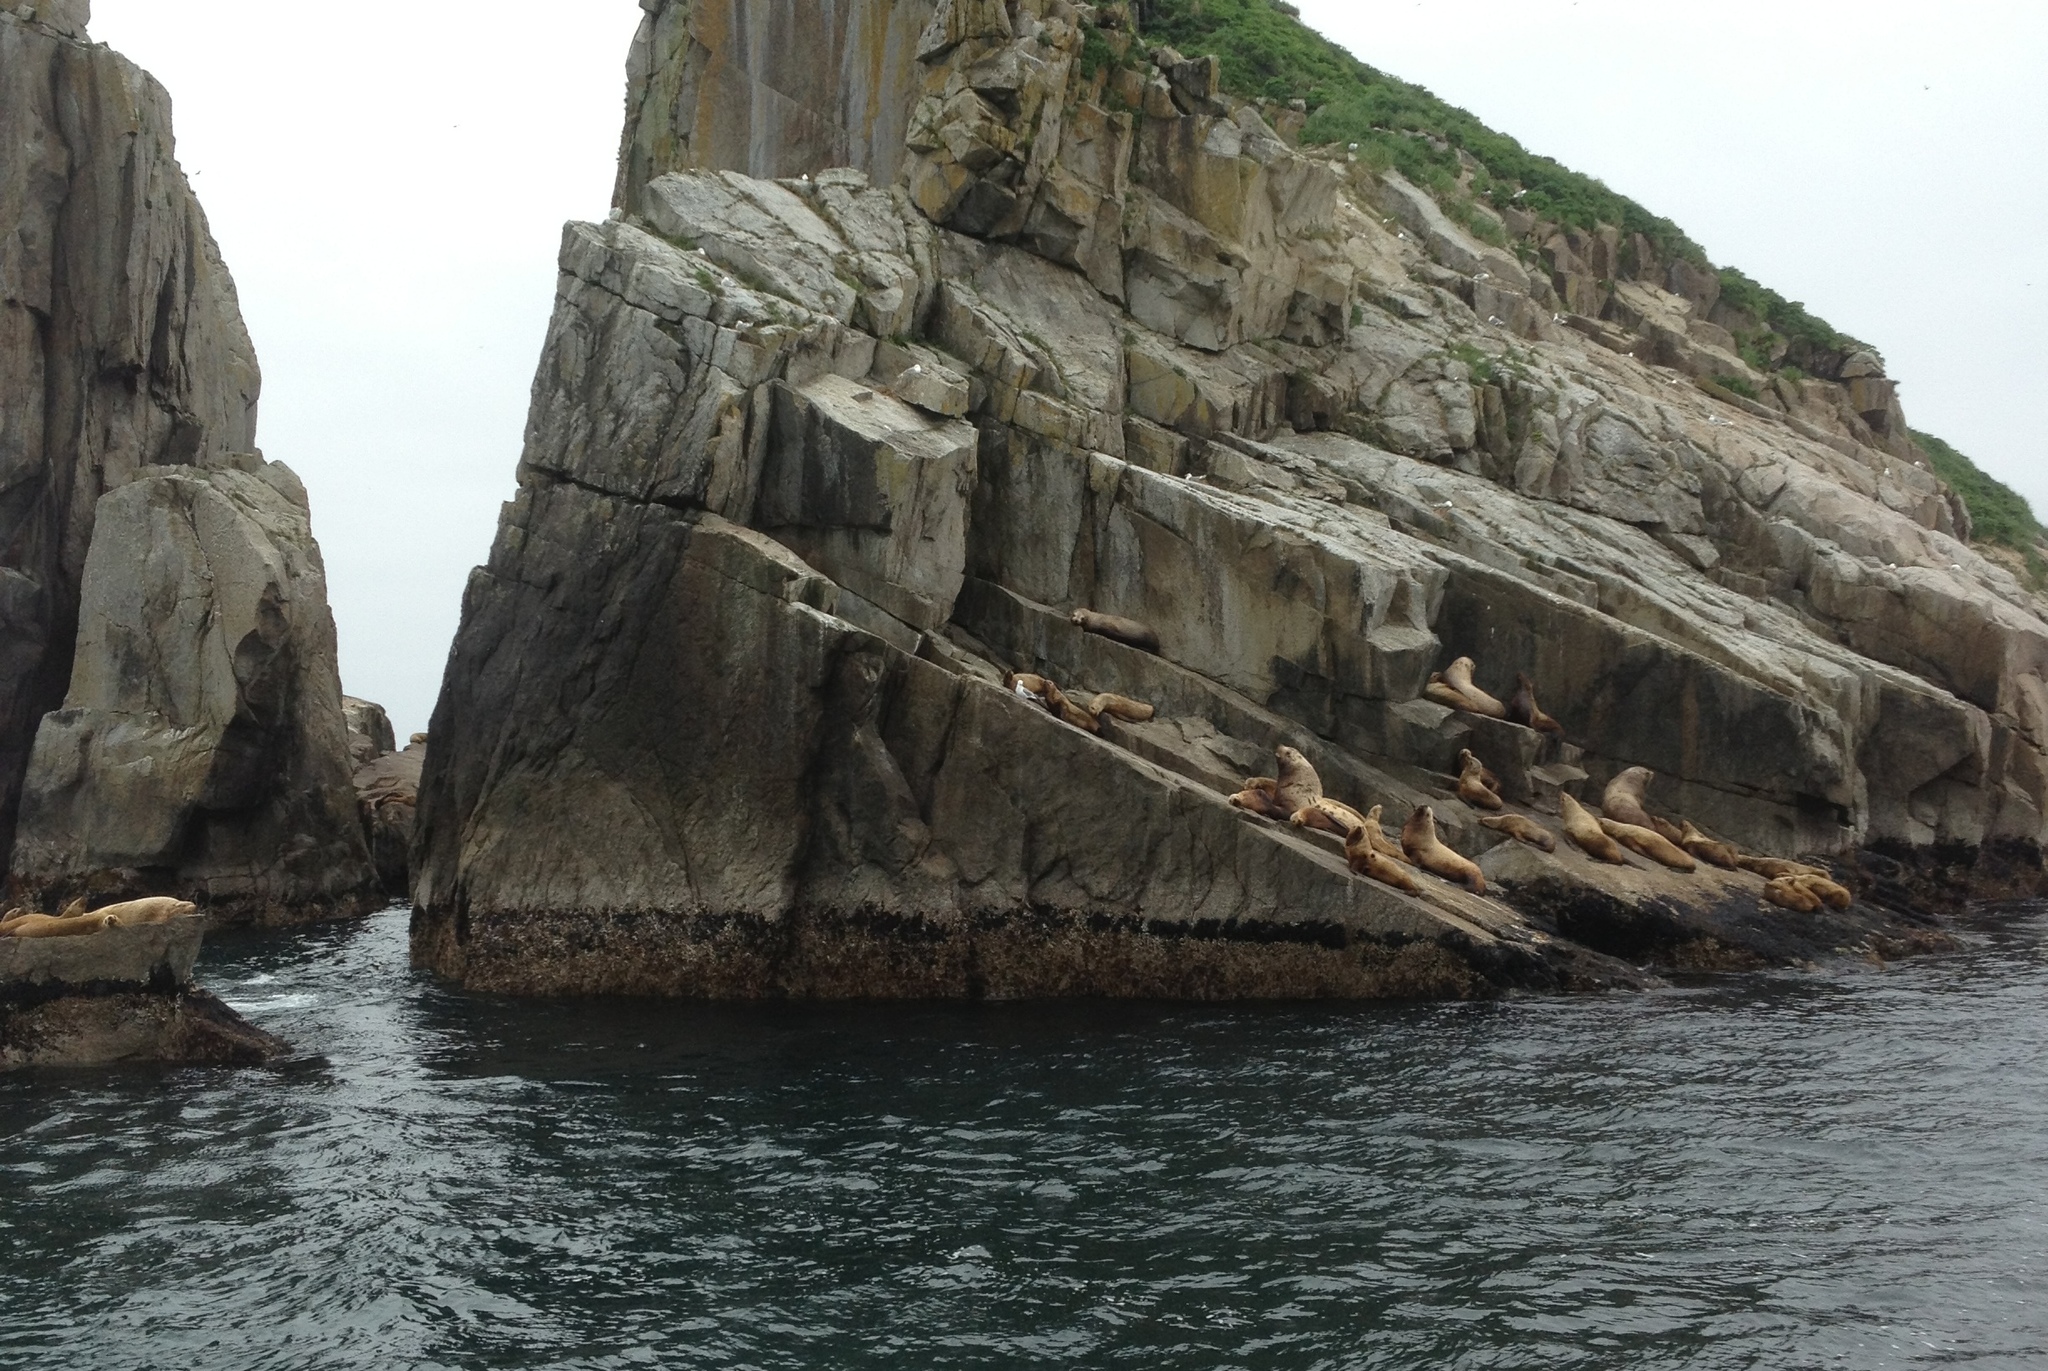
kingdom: Animalia
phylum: Chordata
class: Mammalia
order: Carnivora
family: Otariidae
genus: Eumetopias
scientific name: Eumetopias jubatus
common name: Steller sea lion
